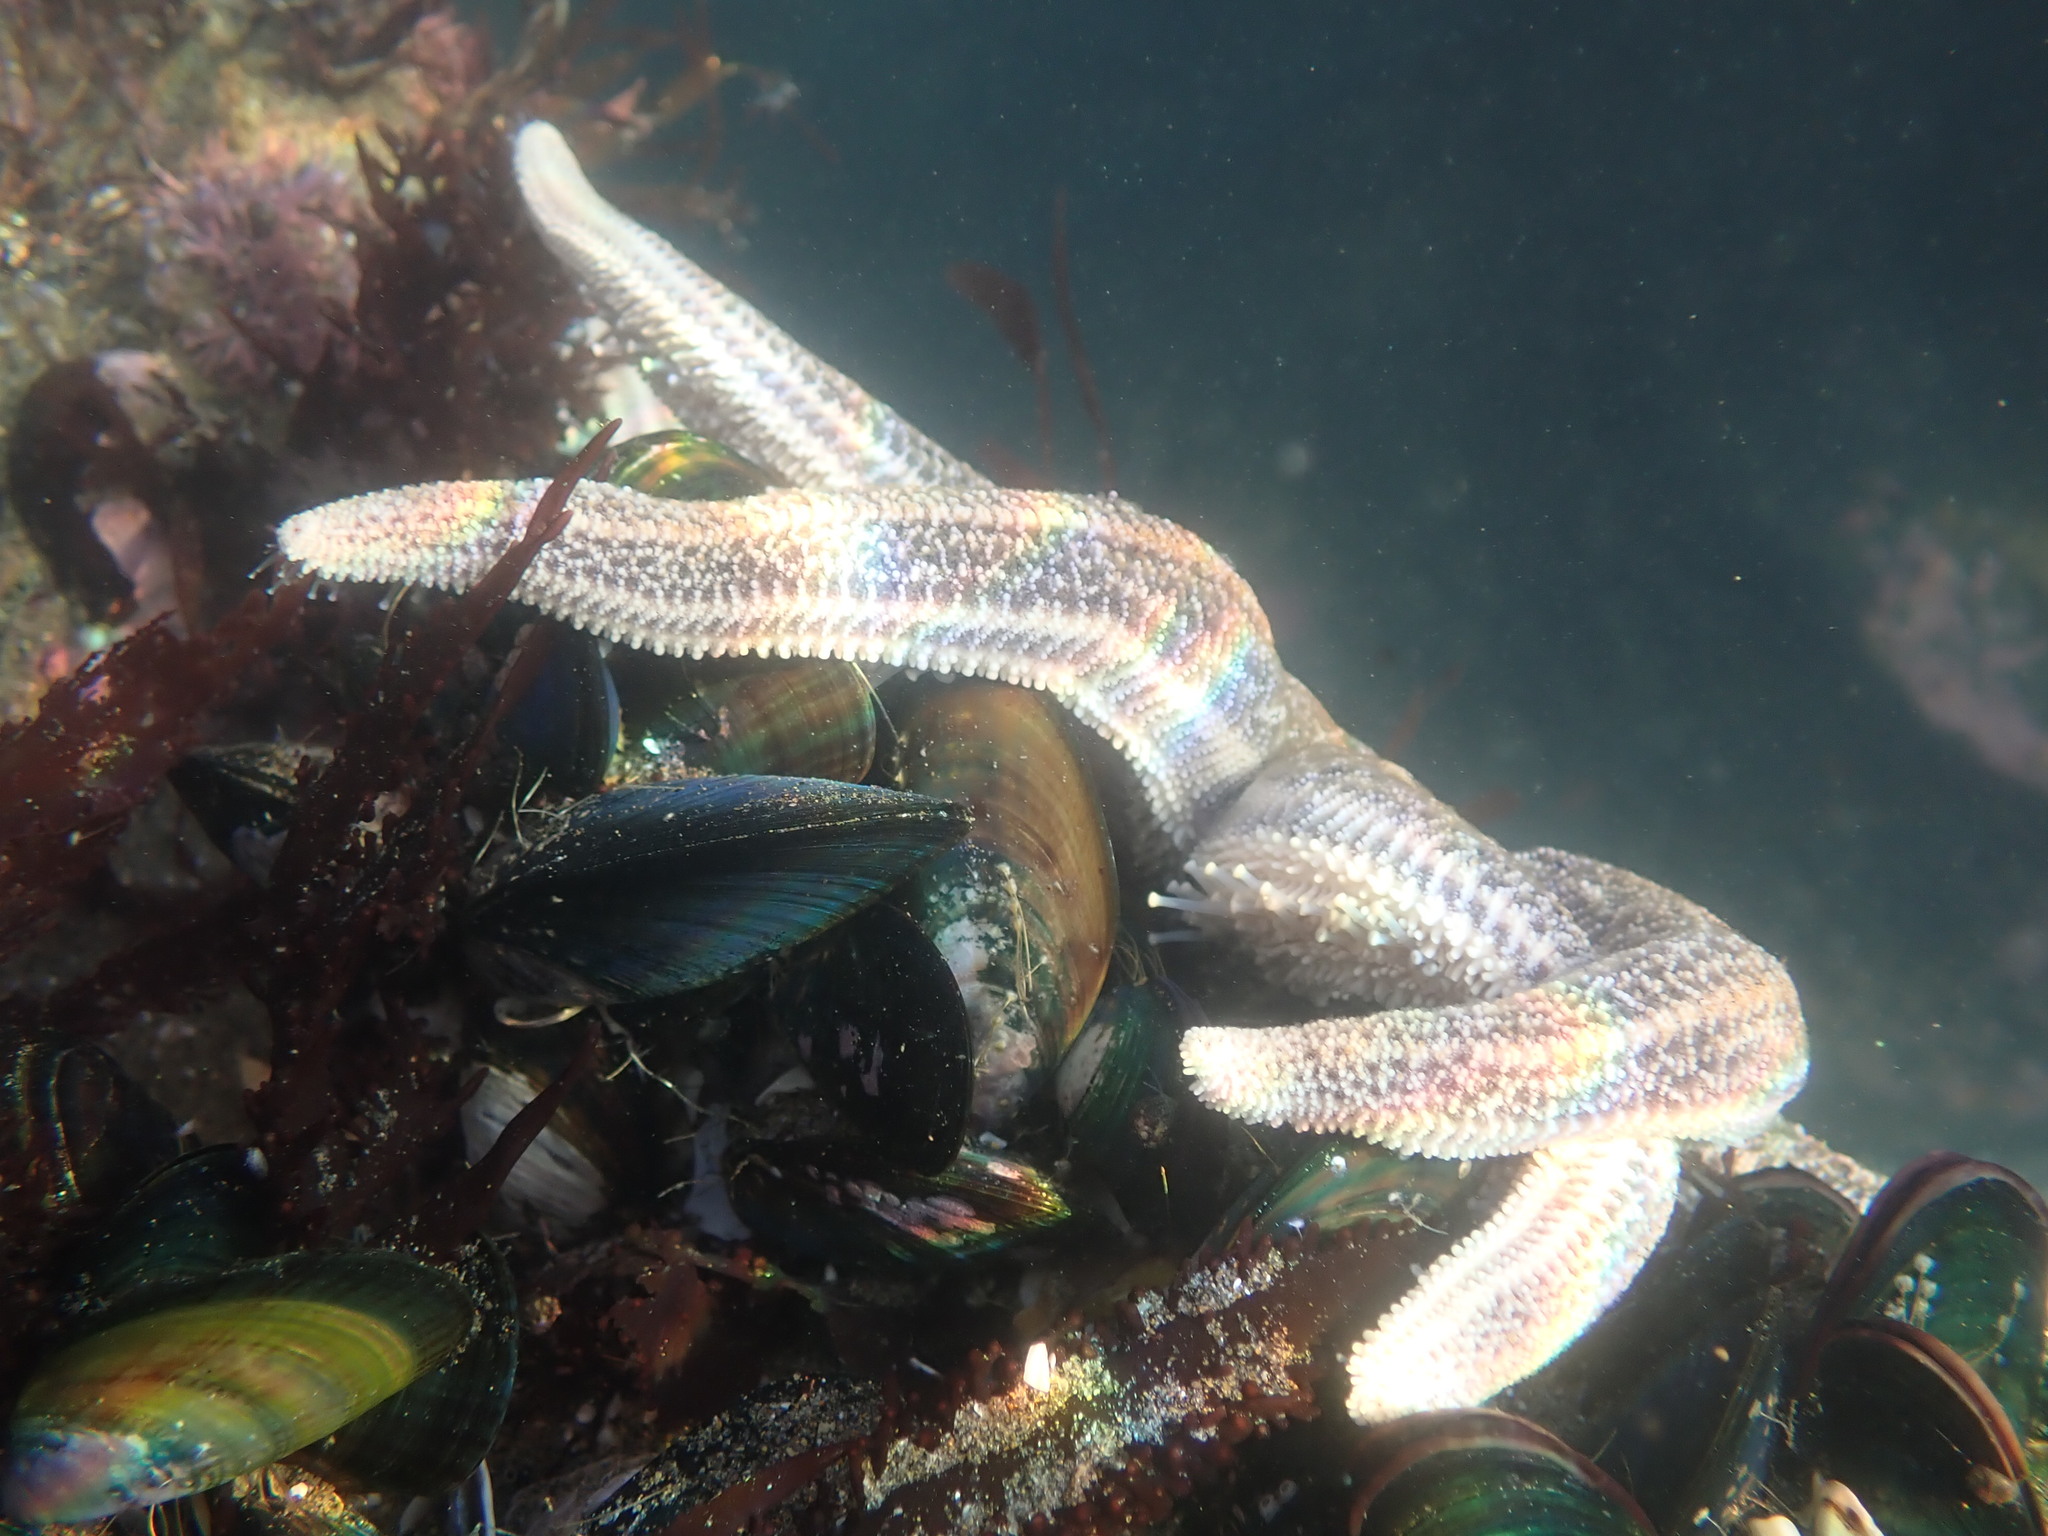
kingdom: Animalia
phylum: Echinodermata
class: Asteroidea
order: Forcipulatida
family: Stichasteridae
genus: Stichaster
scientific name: Stichaster australis
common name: Reef starfish
